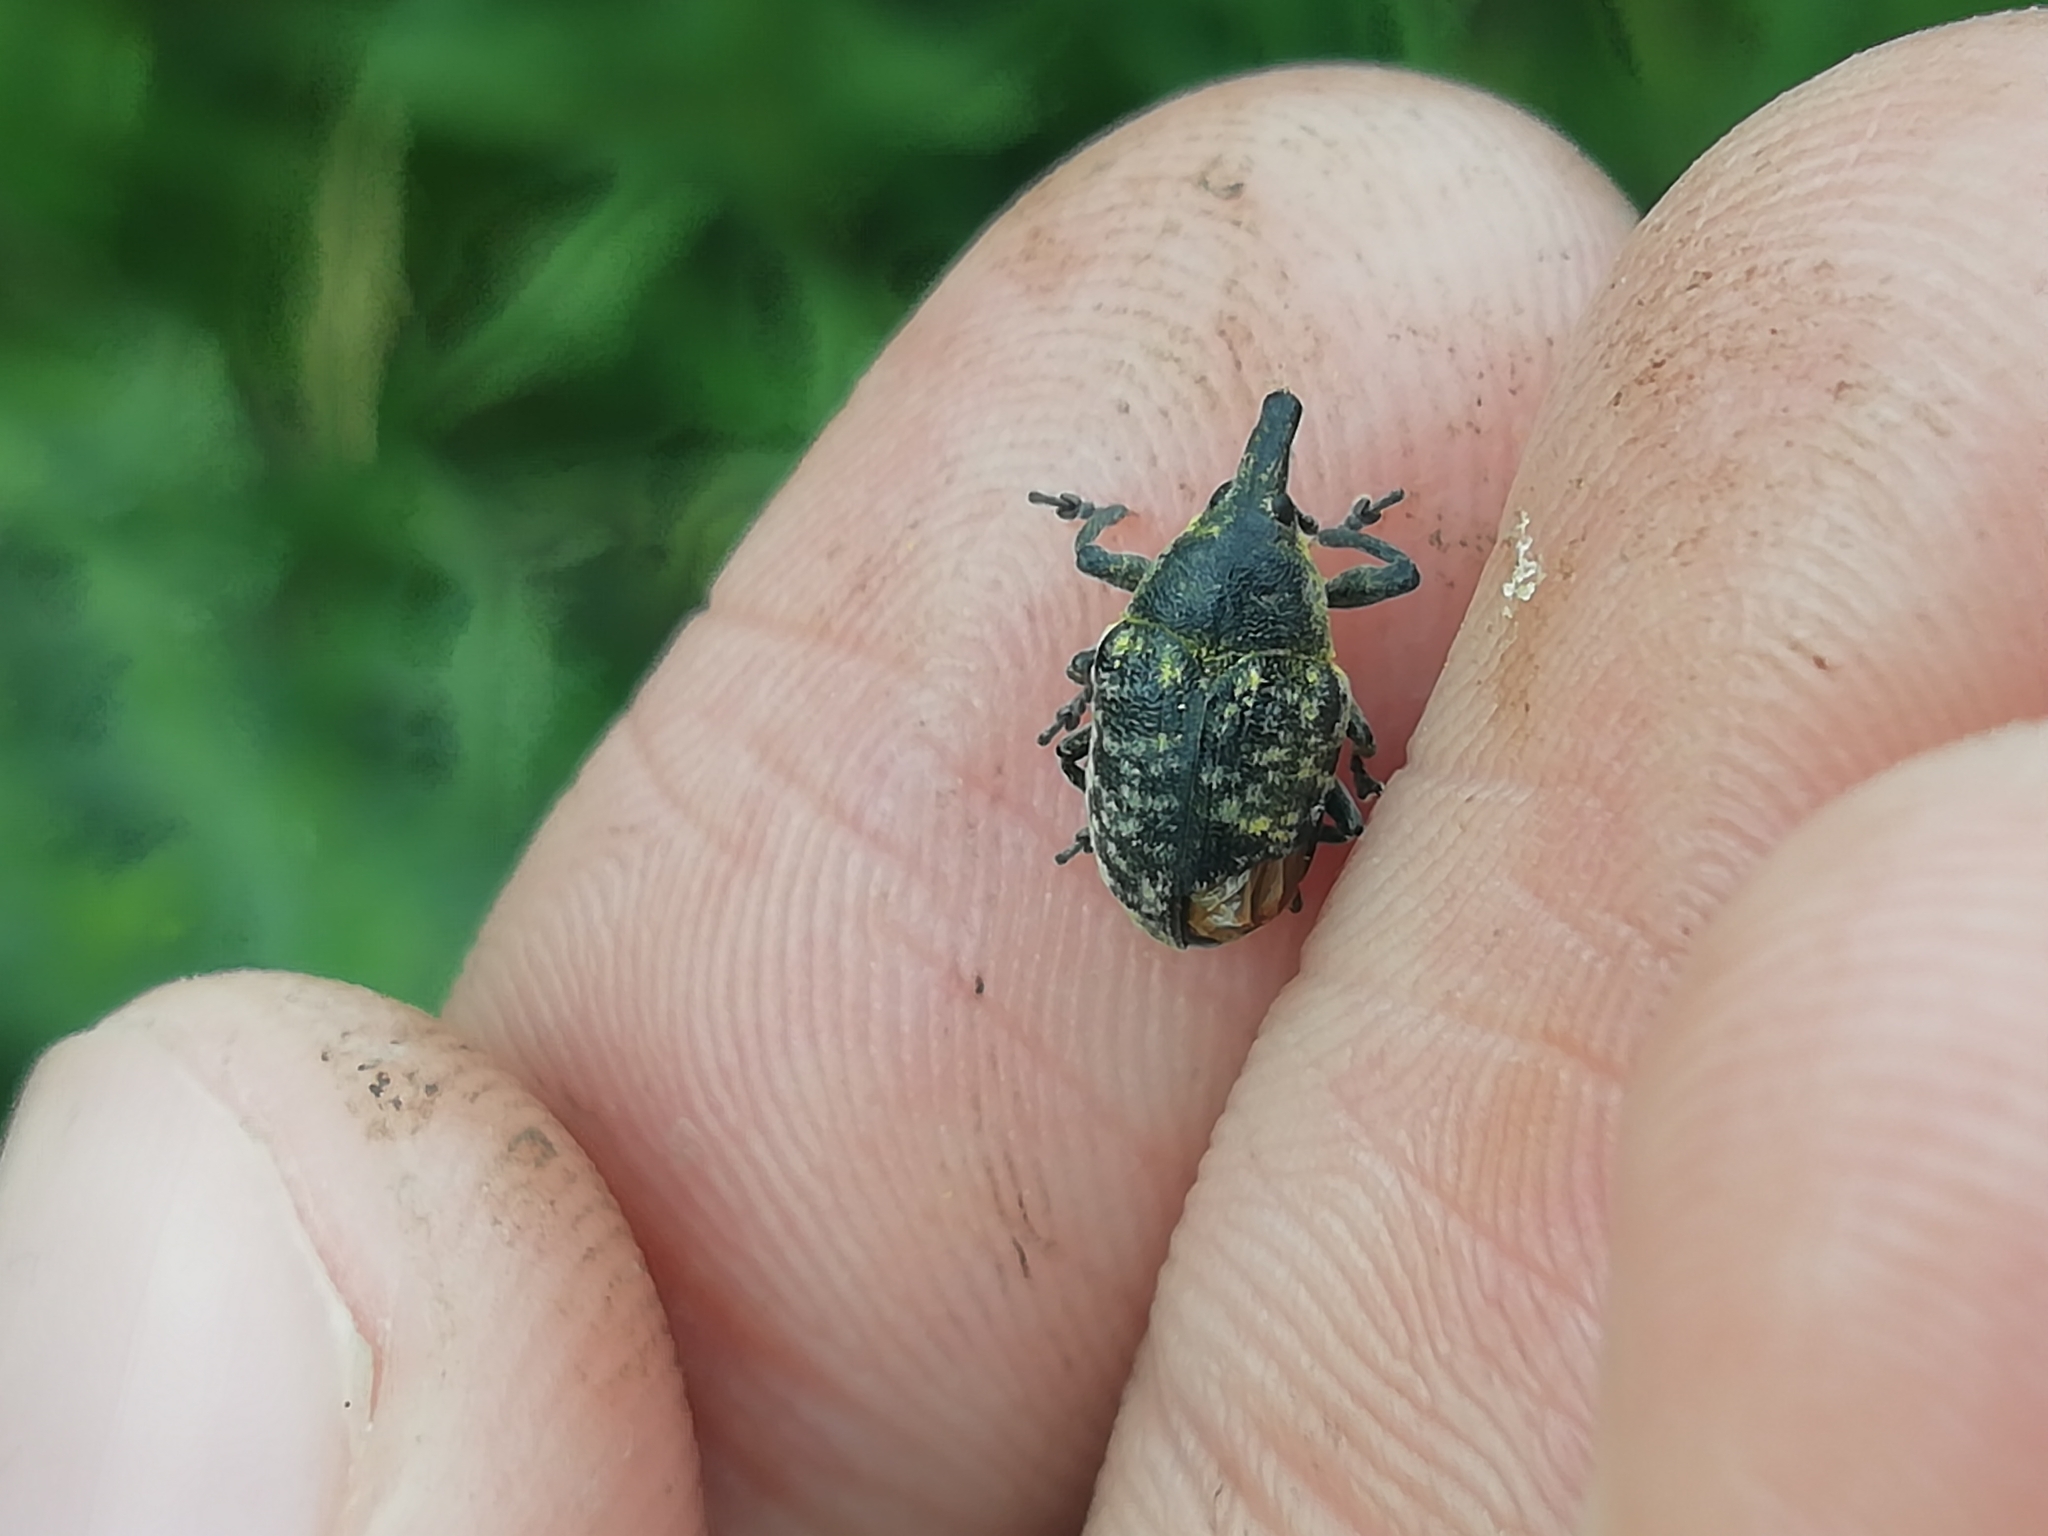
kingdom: Animalia
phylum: Arthropoda
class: Insecta
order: Coleoptera
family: Curculionidae
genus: Larinus
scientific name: Larinus turbinatus
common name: Weevil
